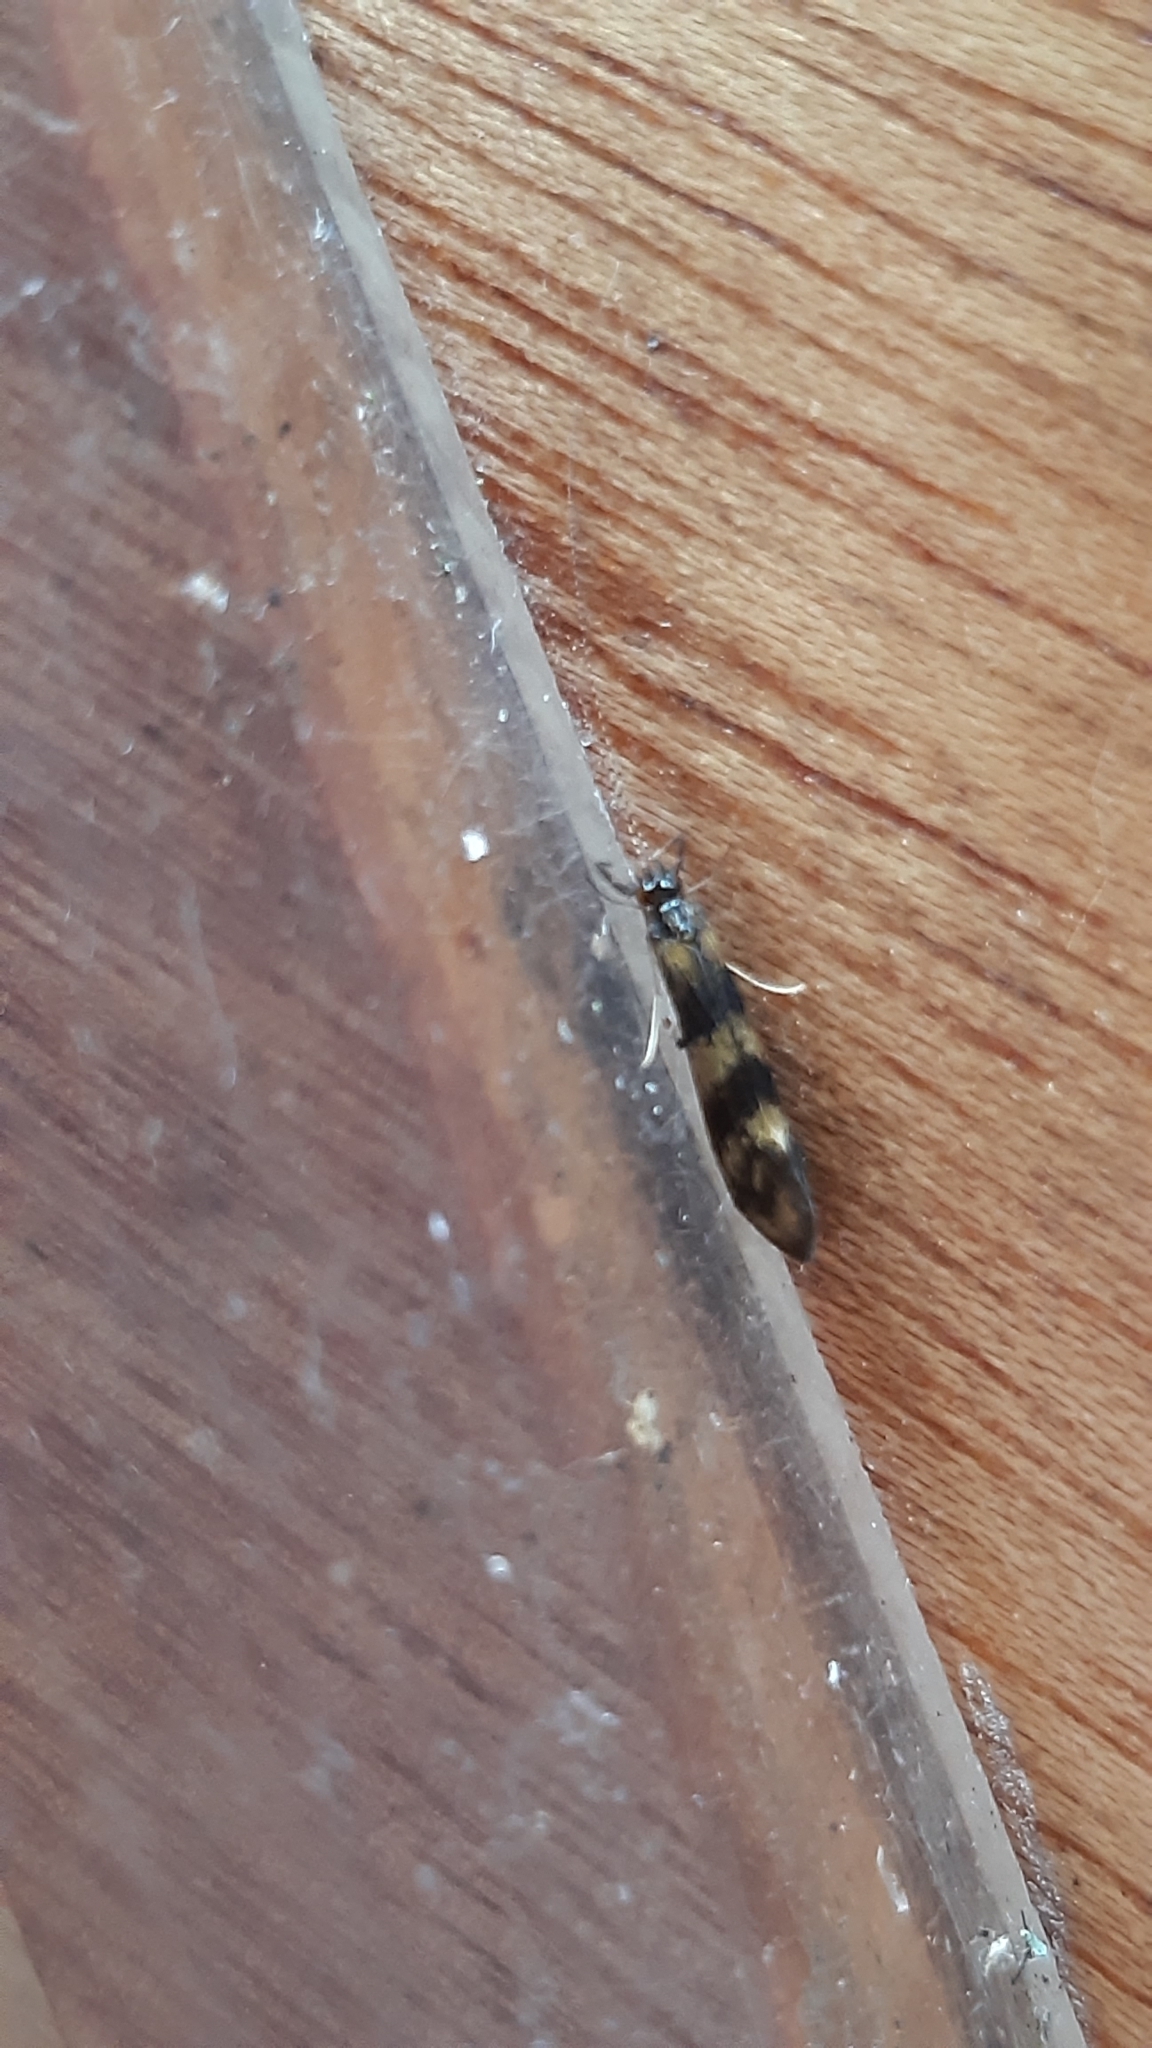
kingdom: Animalia
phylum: Arthropoda
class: Insecta
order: Trichoptera
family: Leptoceridae
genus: Mystacides
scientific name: Mystacides longicornis
